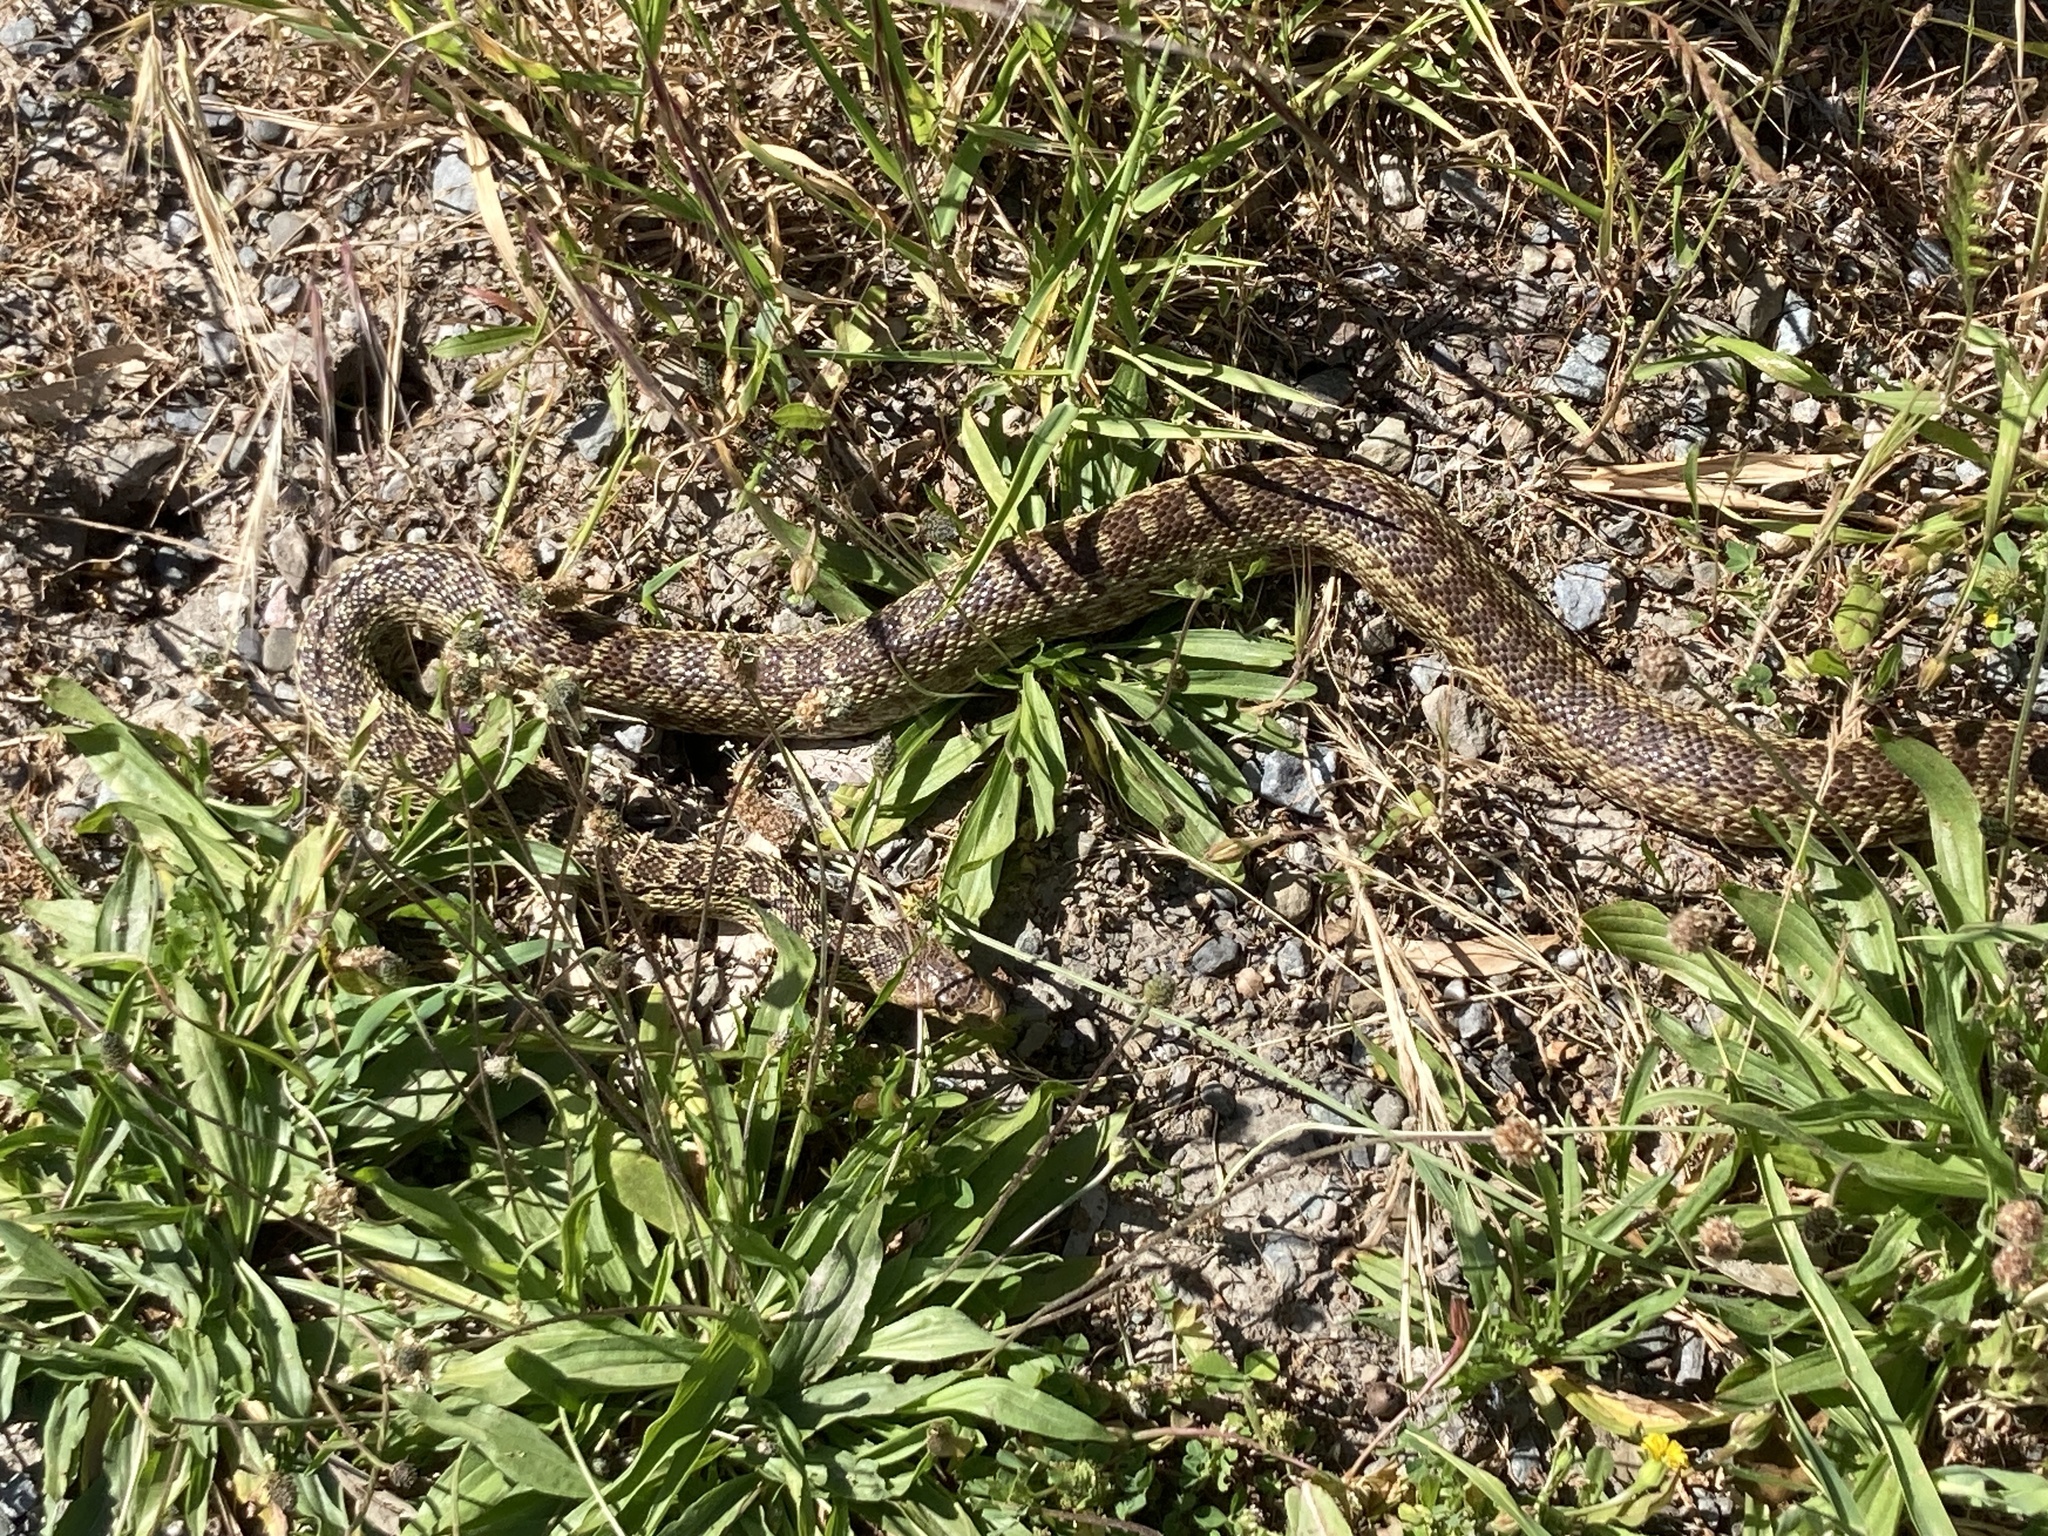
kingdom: Animalia
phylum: Chordata
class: Squamata
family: Colubridae
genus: Pituophis
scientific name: Pituophis catenifer
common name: Gopher snake
